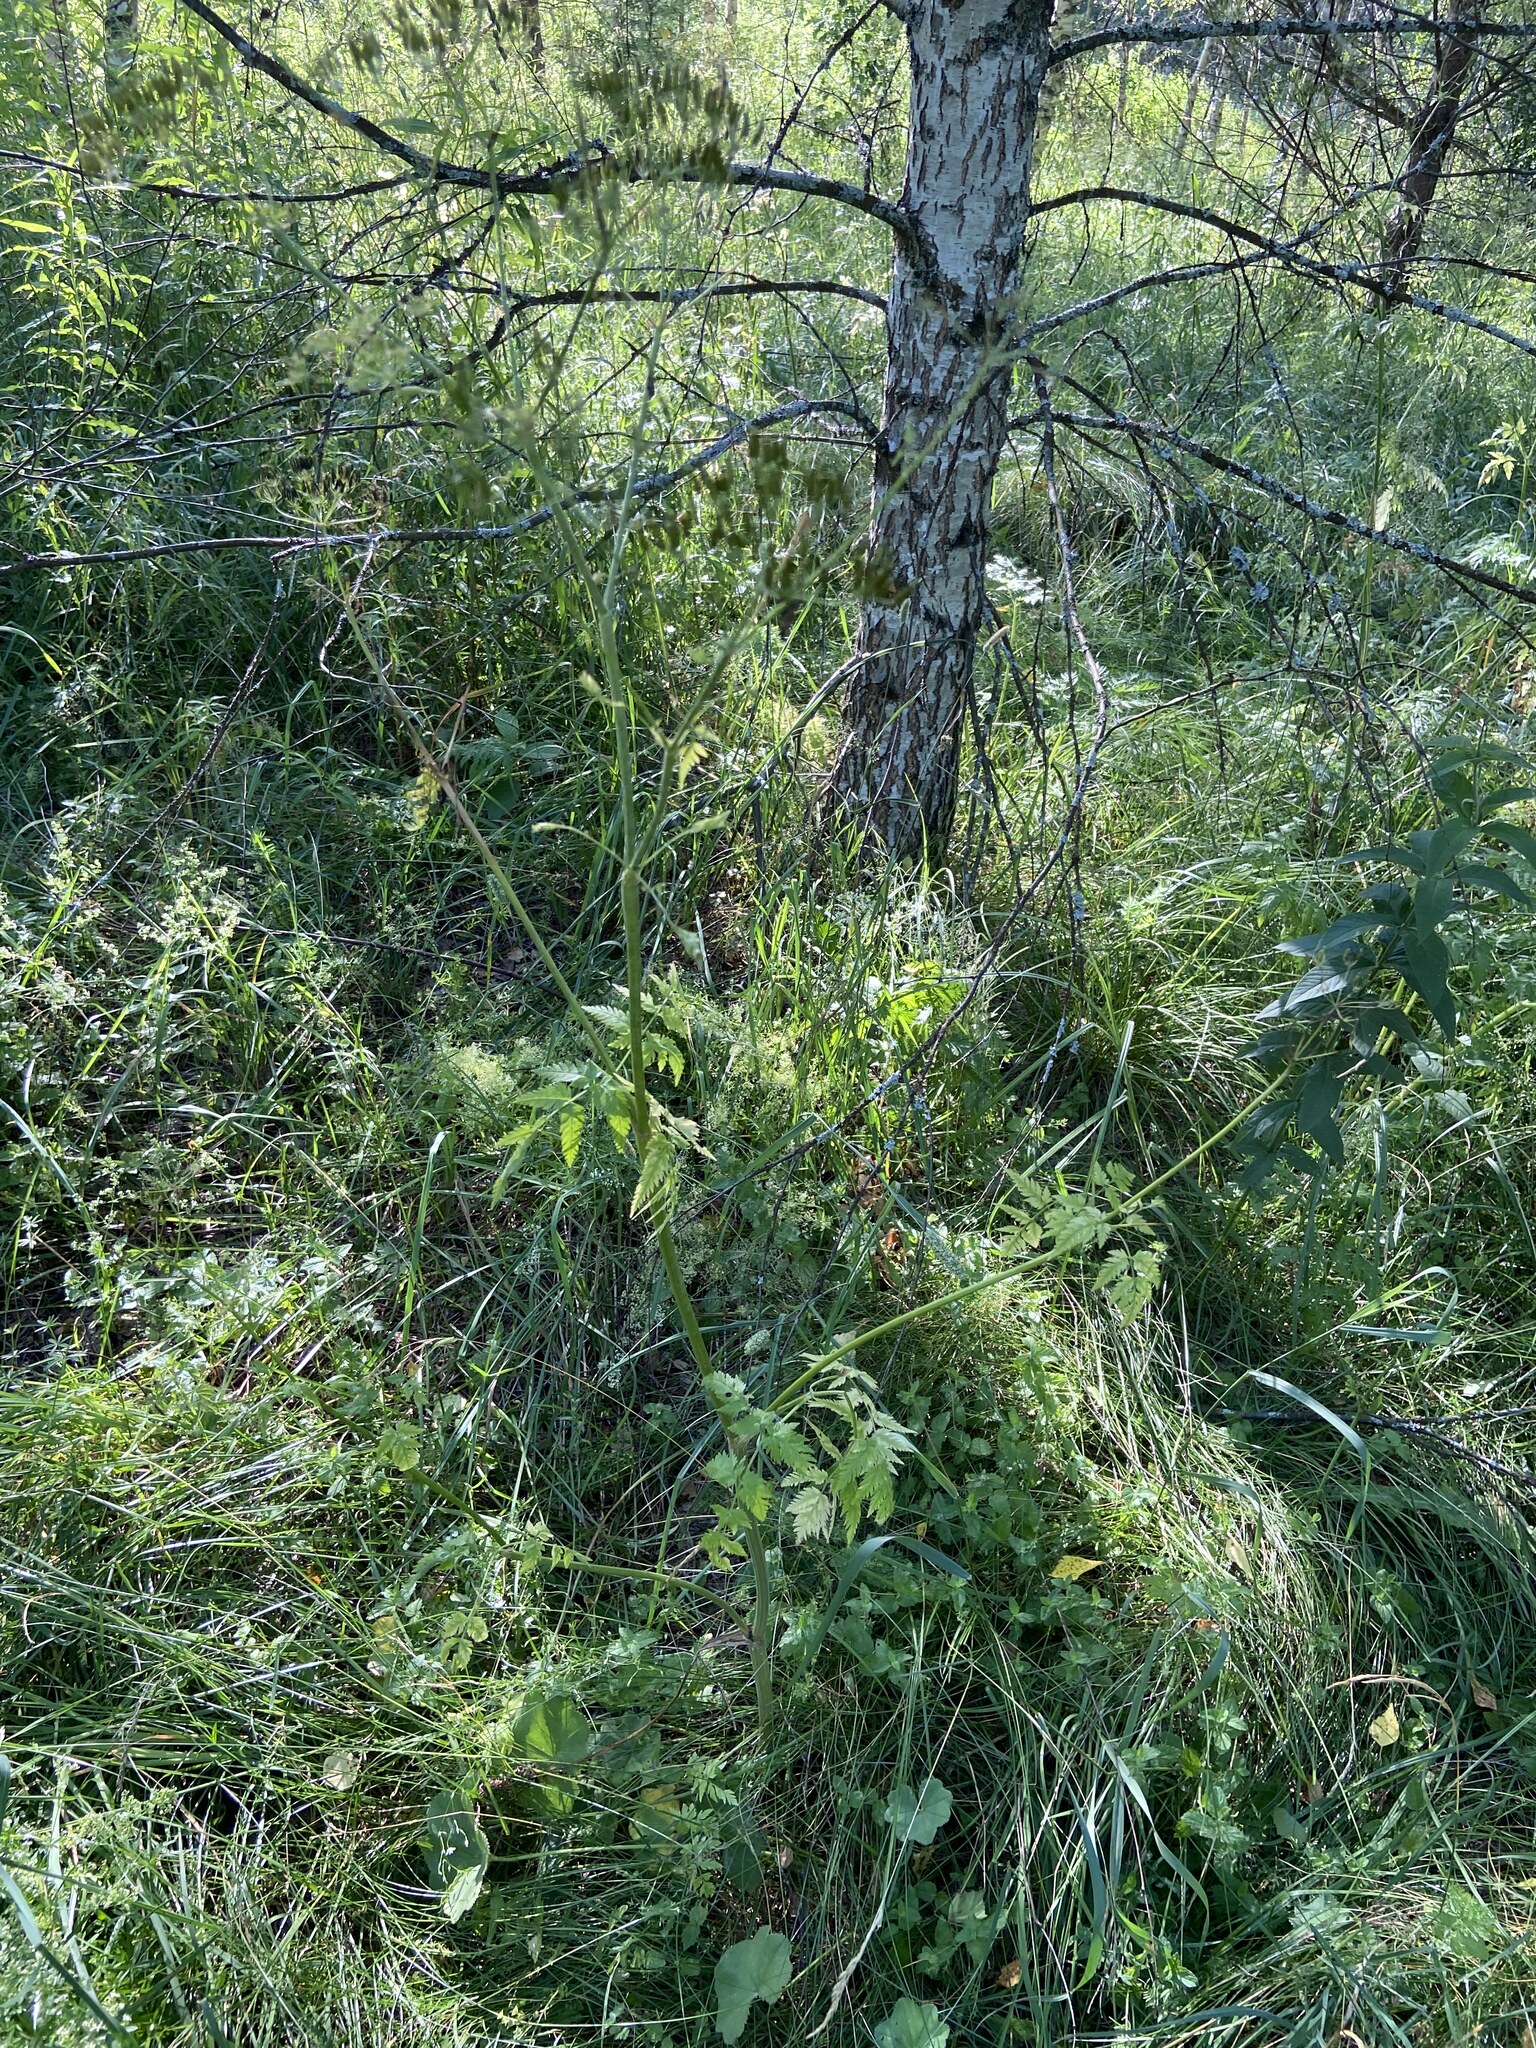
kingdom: Plantae
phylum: Tracheophyta
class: Magnoliopsida
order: Apiales
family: Apiaceae
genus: Anthriscus
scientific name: Anthriscus sylvestris
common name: Cow parsley
